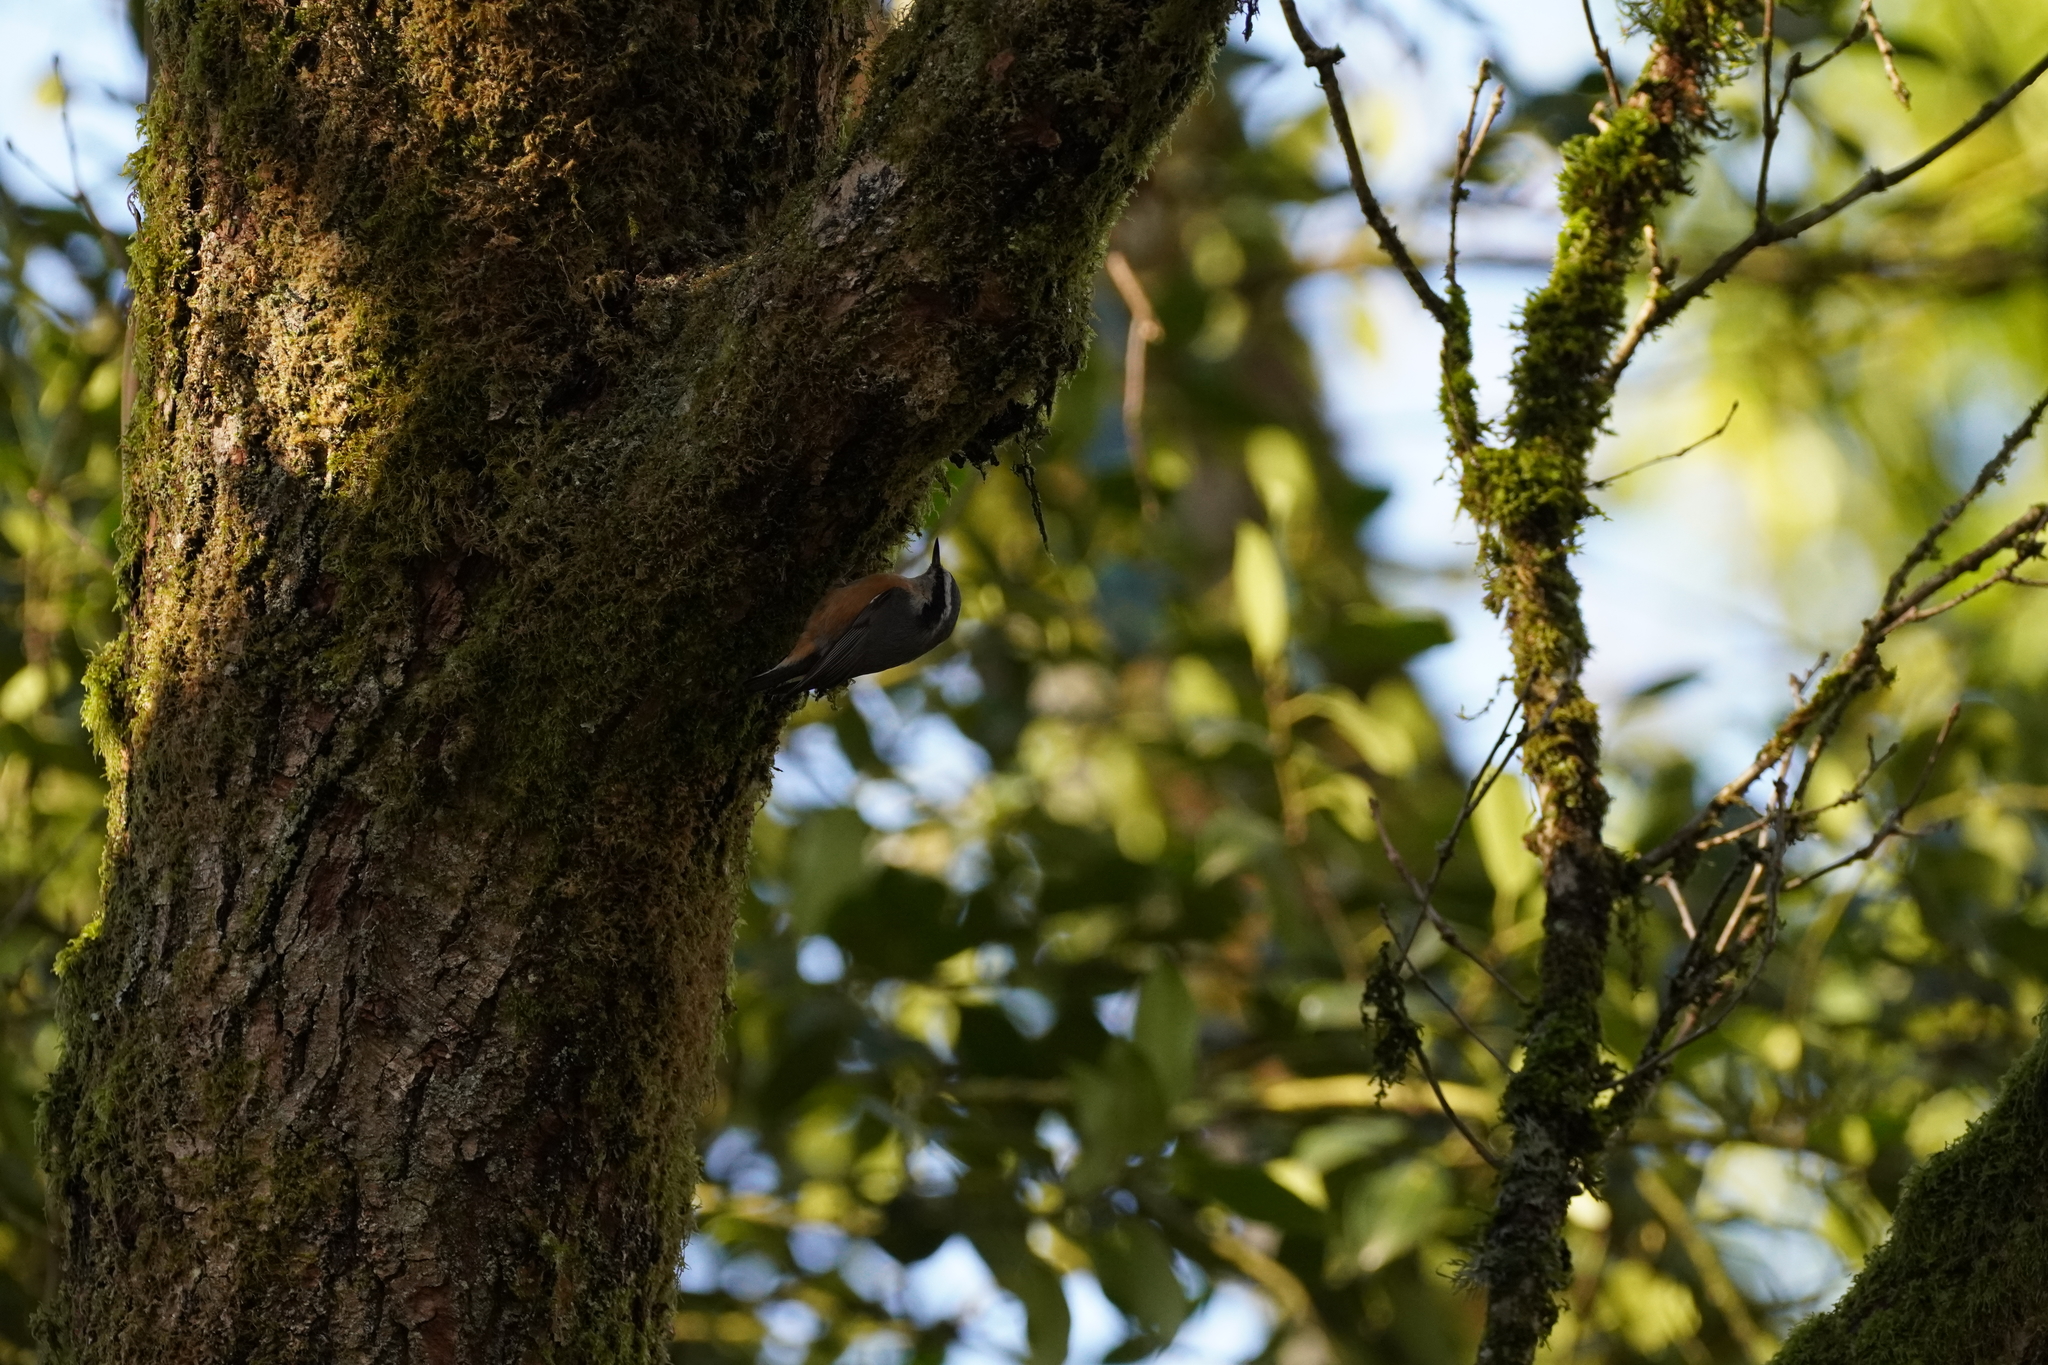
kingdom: Animalia
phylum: Chordata
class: Aves
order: Passeriformes
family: Sittidae
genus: Sitta
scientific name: Sitta canadensis
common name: Red-breasted nuthatch
